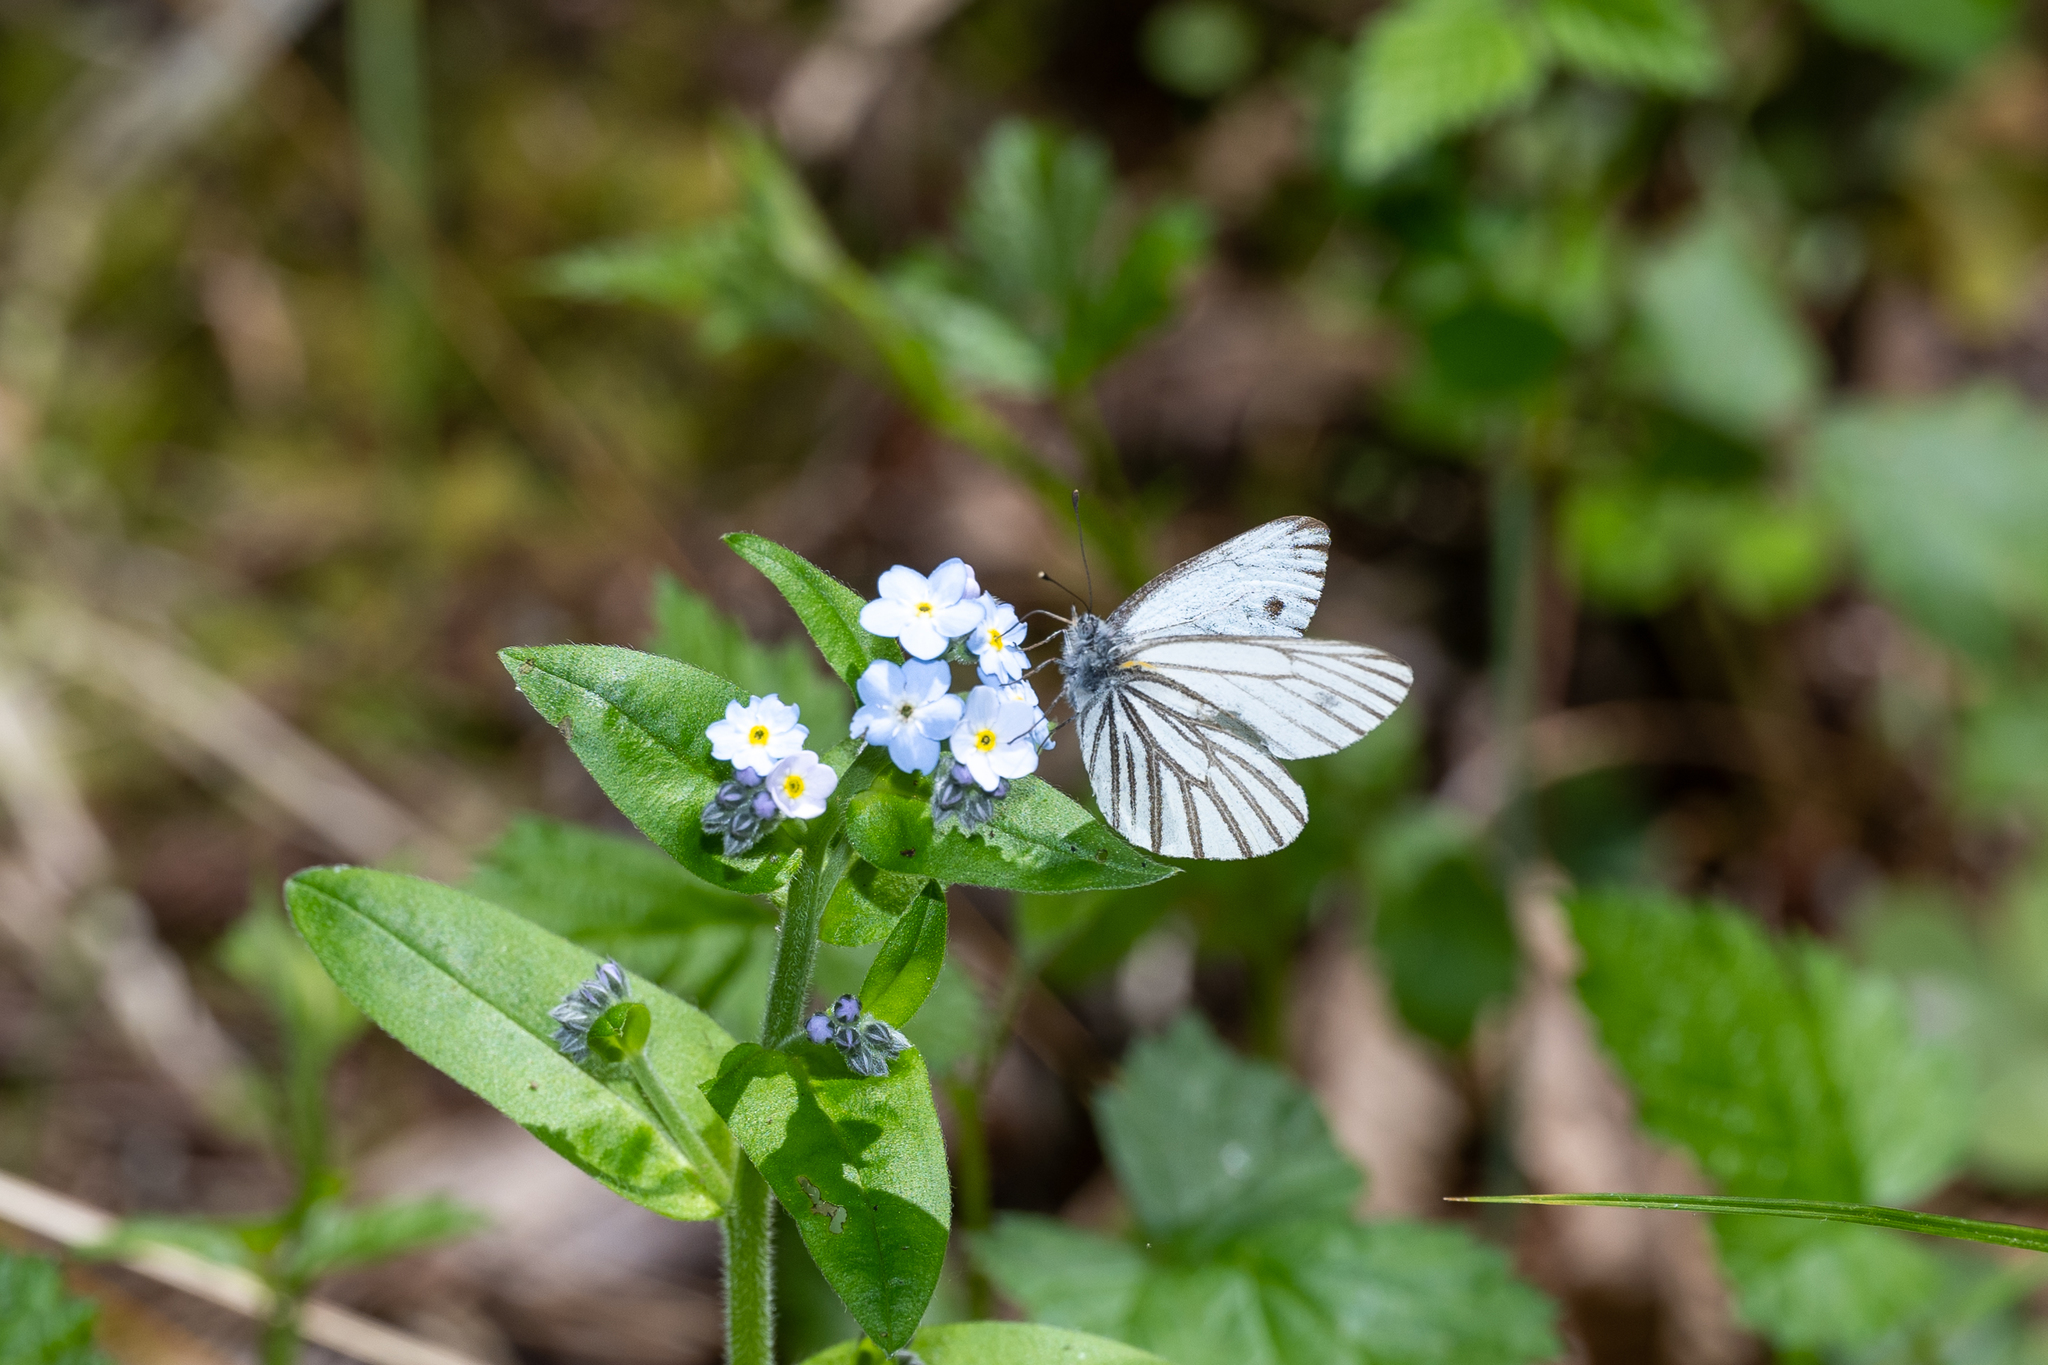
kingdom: Animalia
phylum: Arthropoda
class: Insecta
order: Lepidoptera
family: Pieridae
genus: Pieris
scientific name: Pieris marginalis
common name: Margined white
